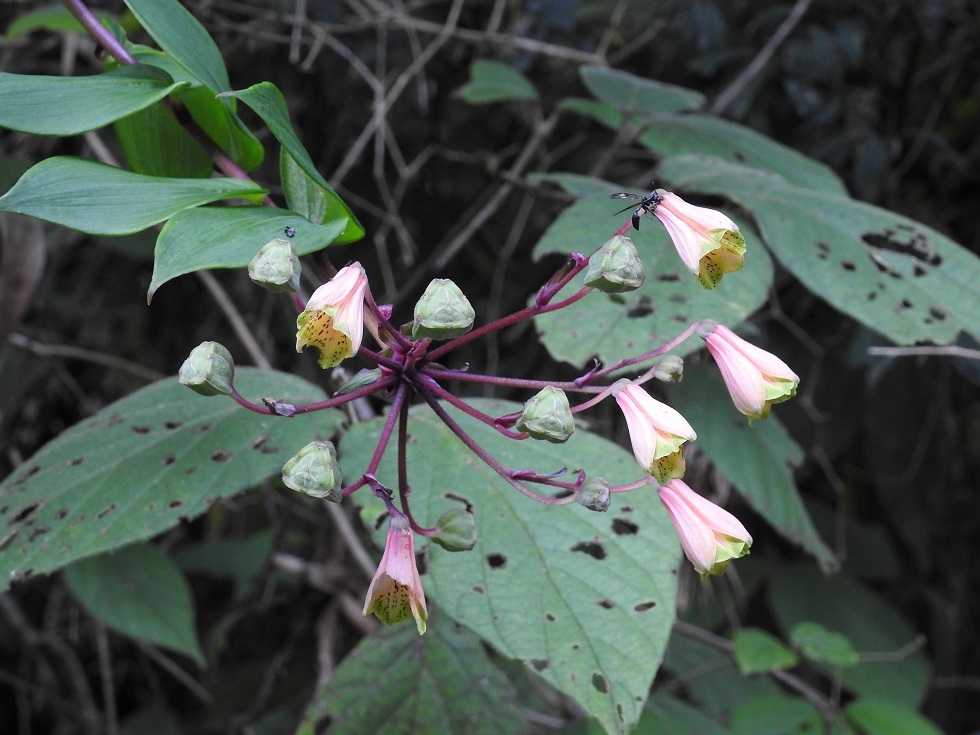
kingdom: Plantae
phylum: Tracheophyta
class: Liliopsida
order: Liliales
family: Alstroemeriaceae
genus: Bomarea
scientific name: Bomarea edulis
